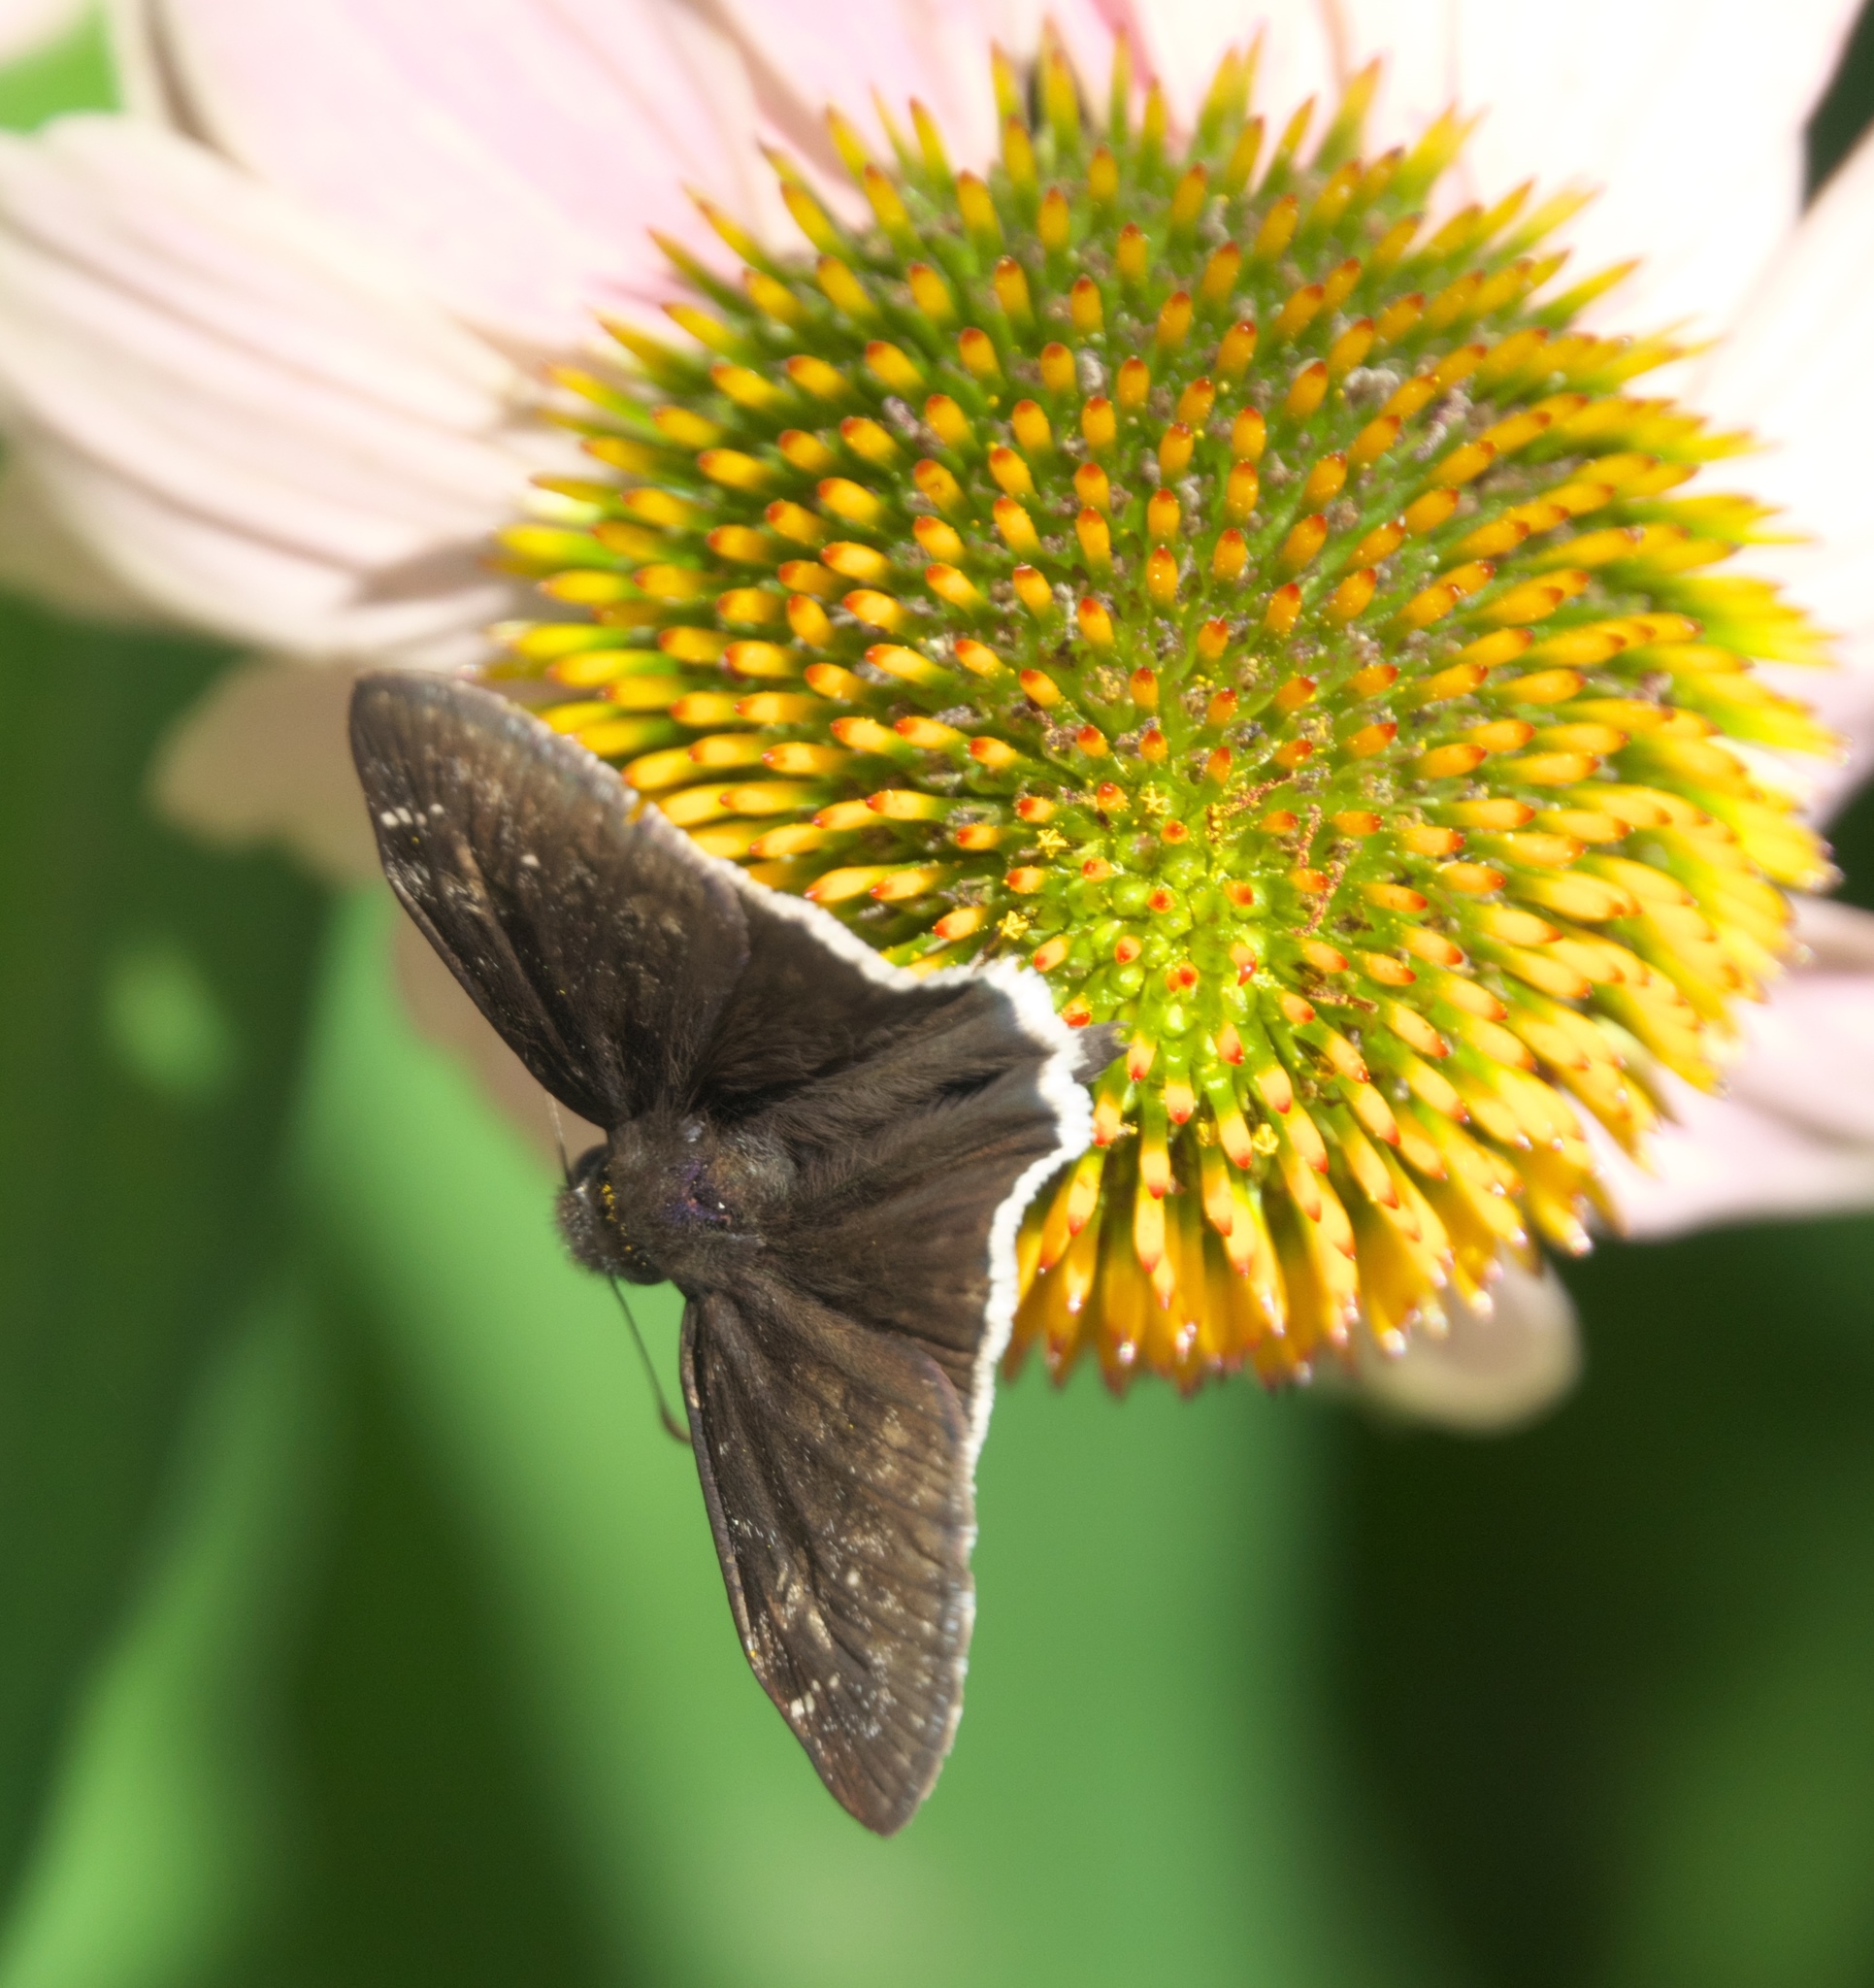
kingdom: Animalia
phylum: Arthropoda
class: Insecta
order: Lepidoptera
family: Hesperiidae
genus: Erynnis
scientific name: Erynnis funeralis
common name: Funereal duskywing
